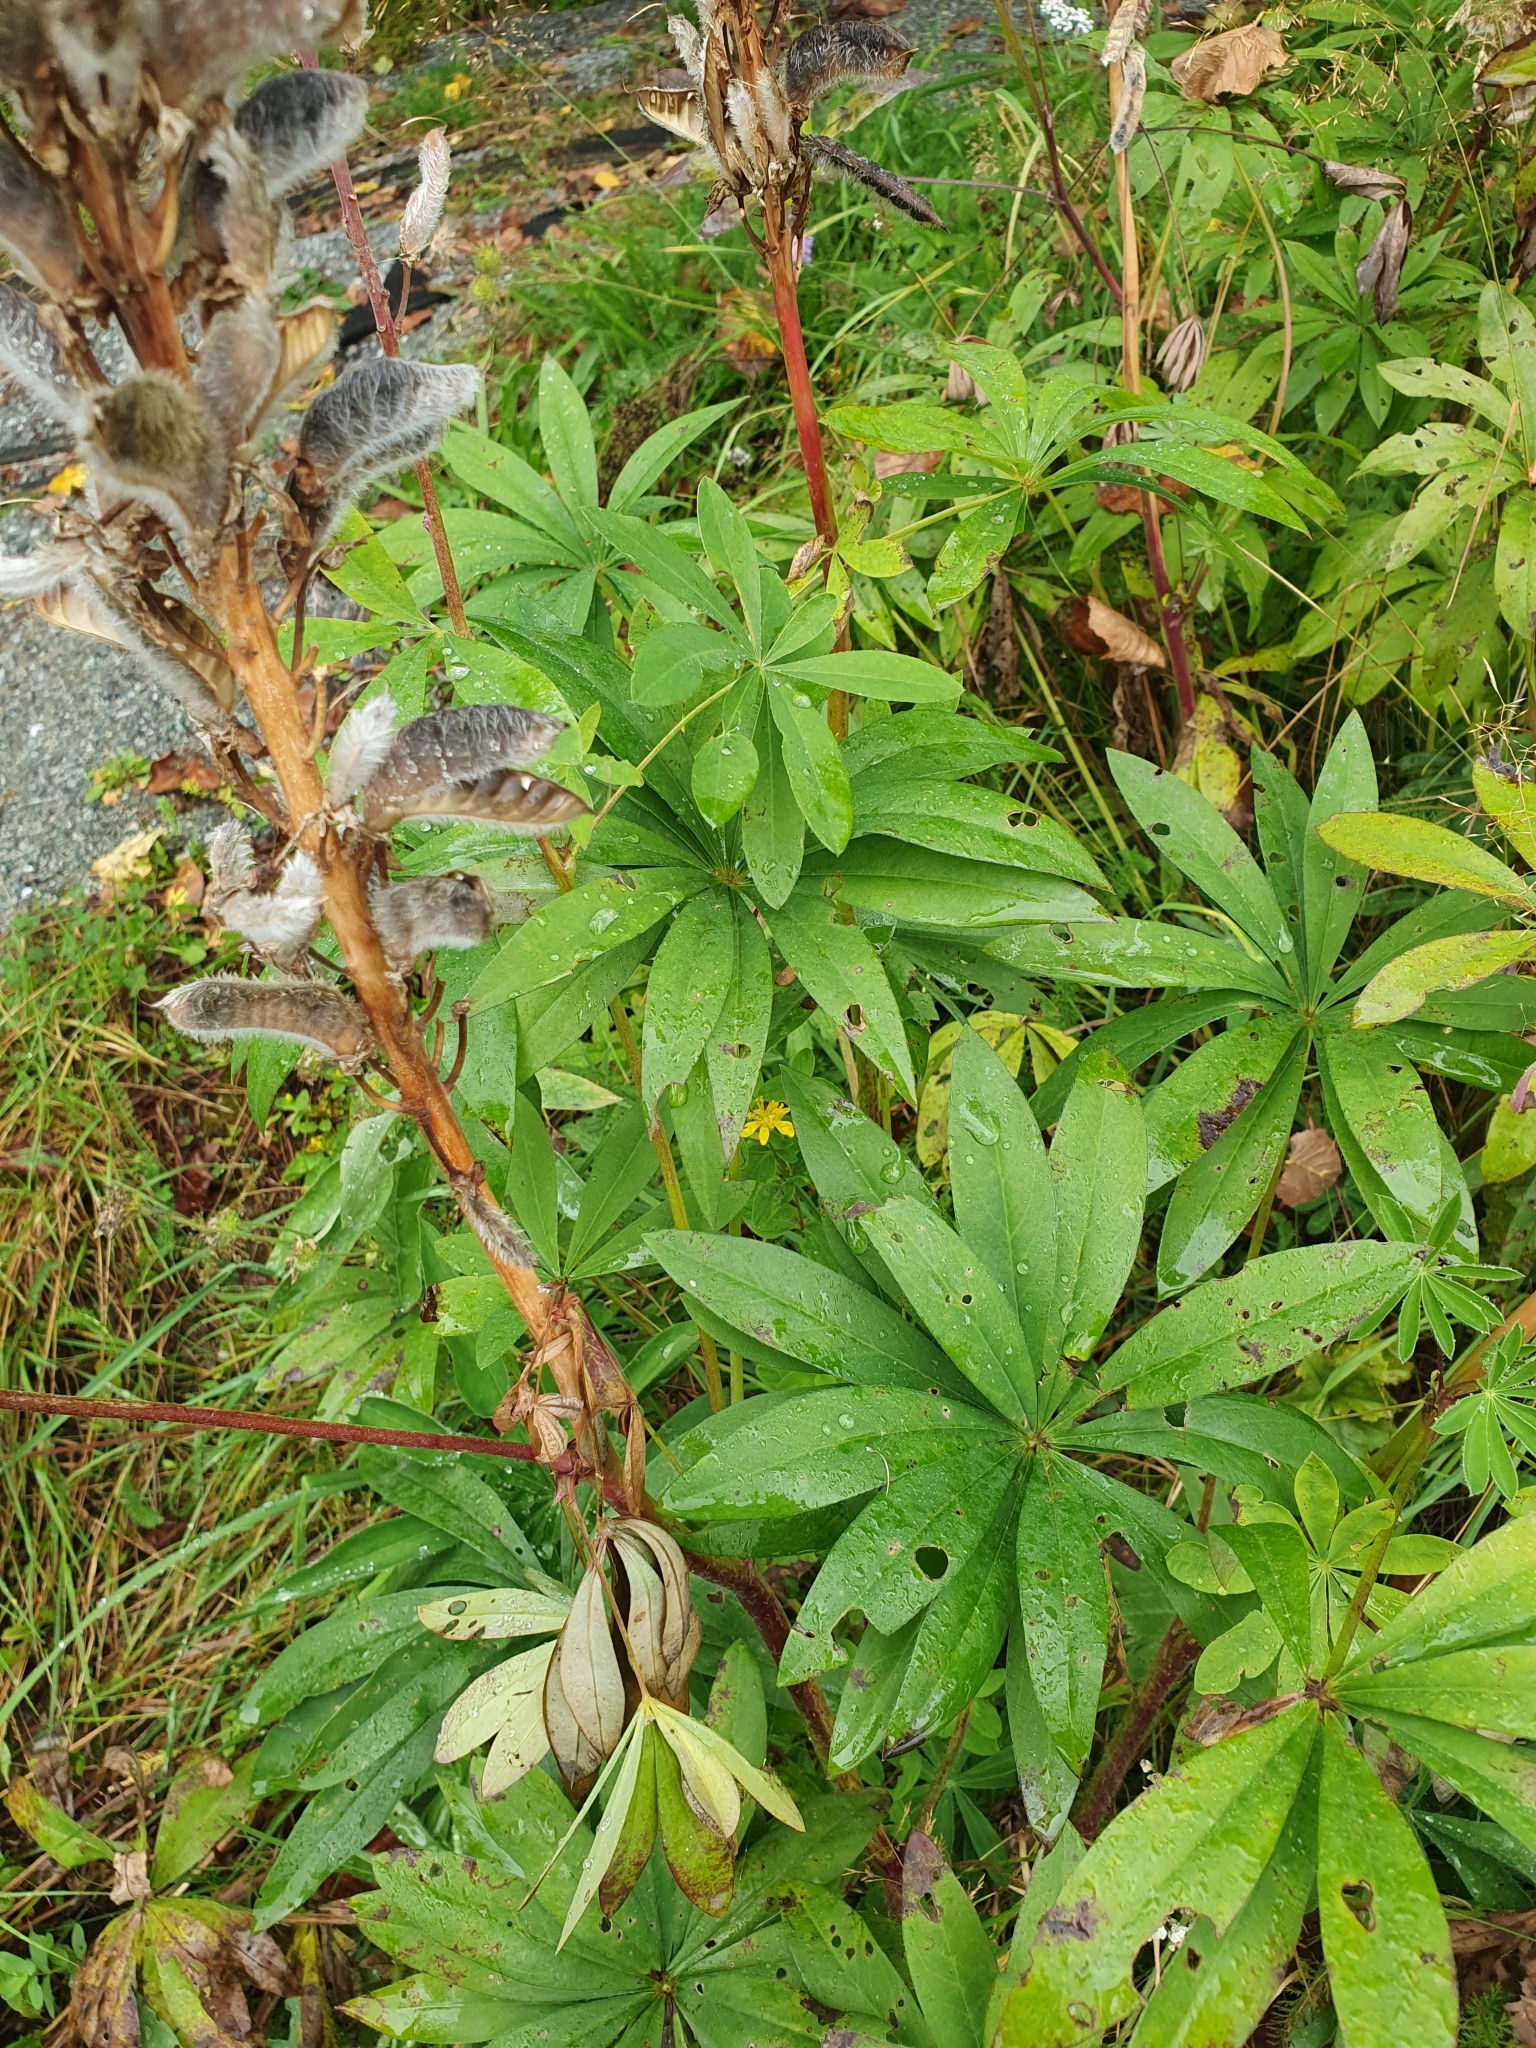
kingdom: Plantae
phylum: Tracheophyta
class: Magnoliopsida
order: Fabales
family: Fabaceae
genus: Lupinus
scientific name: Lupinus polyphyllus
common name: Garden lupin
